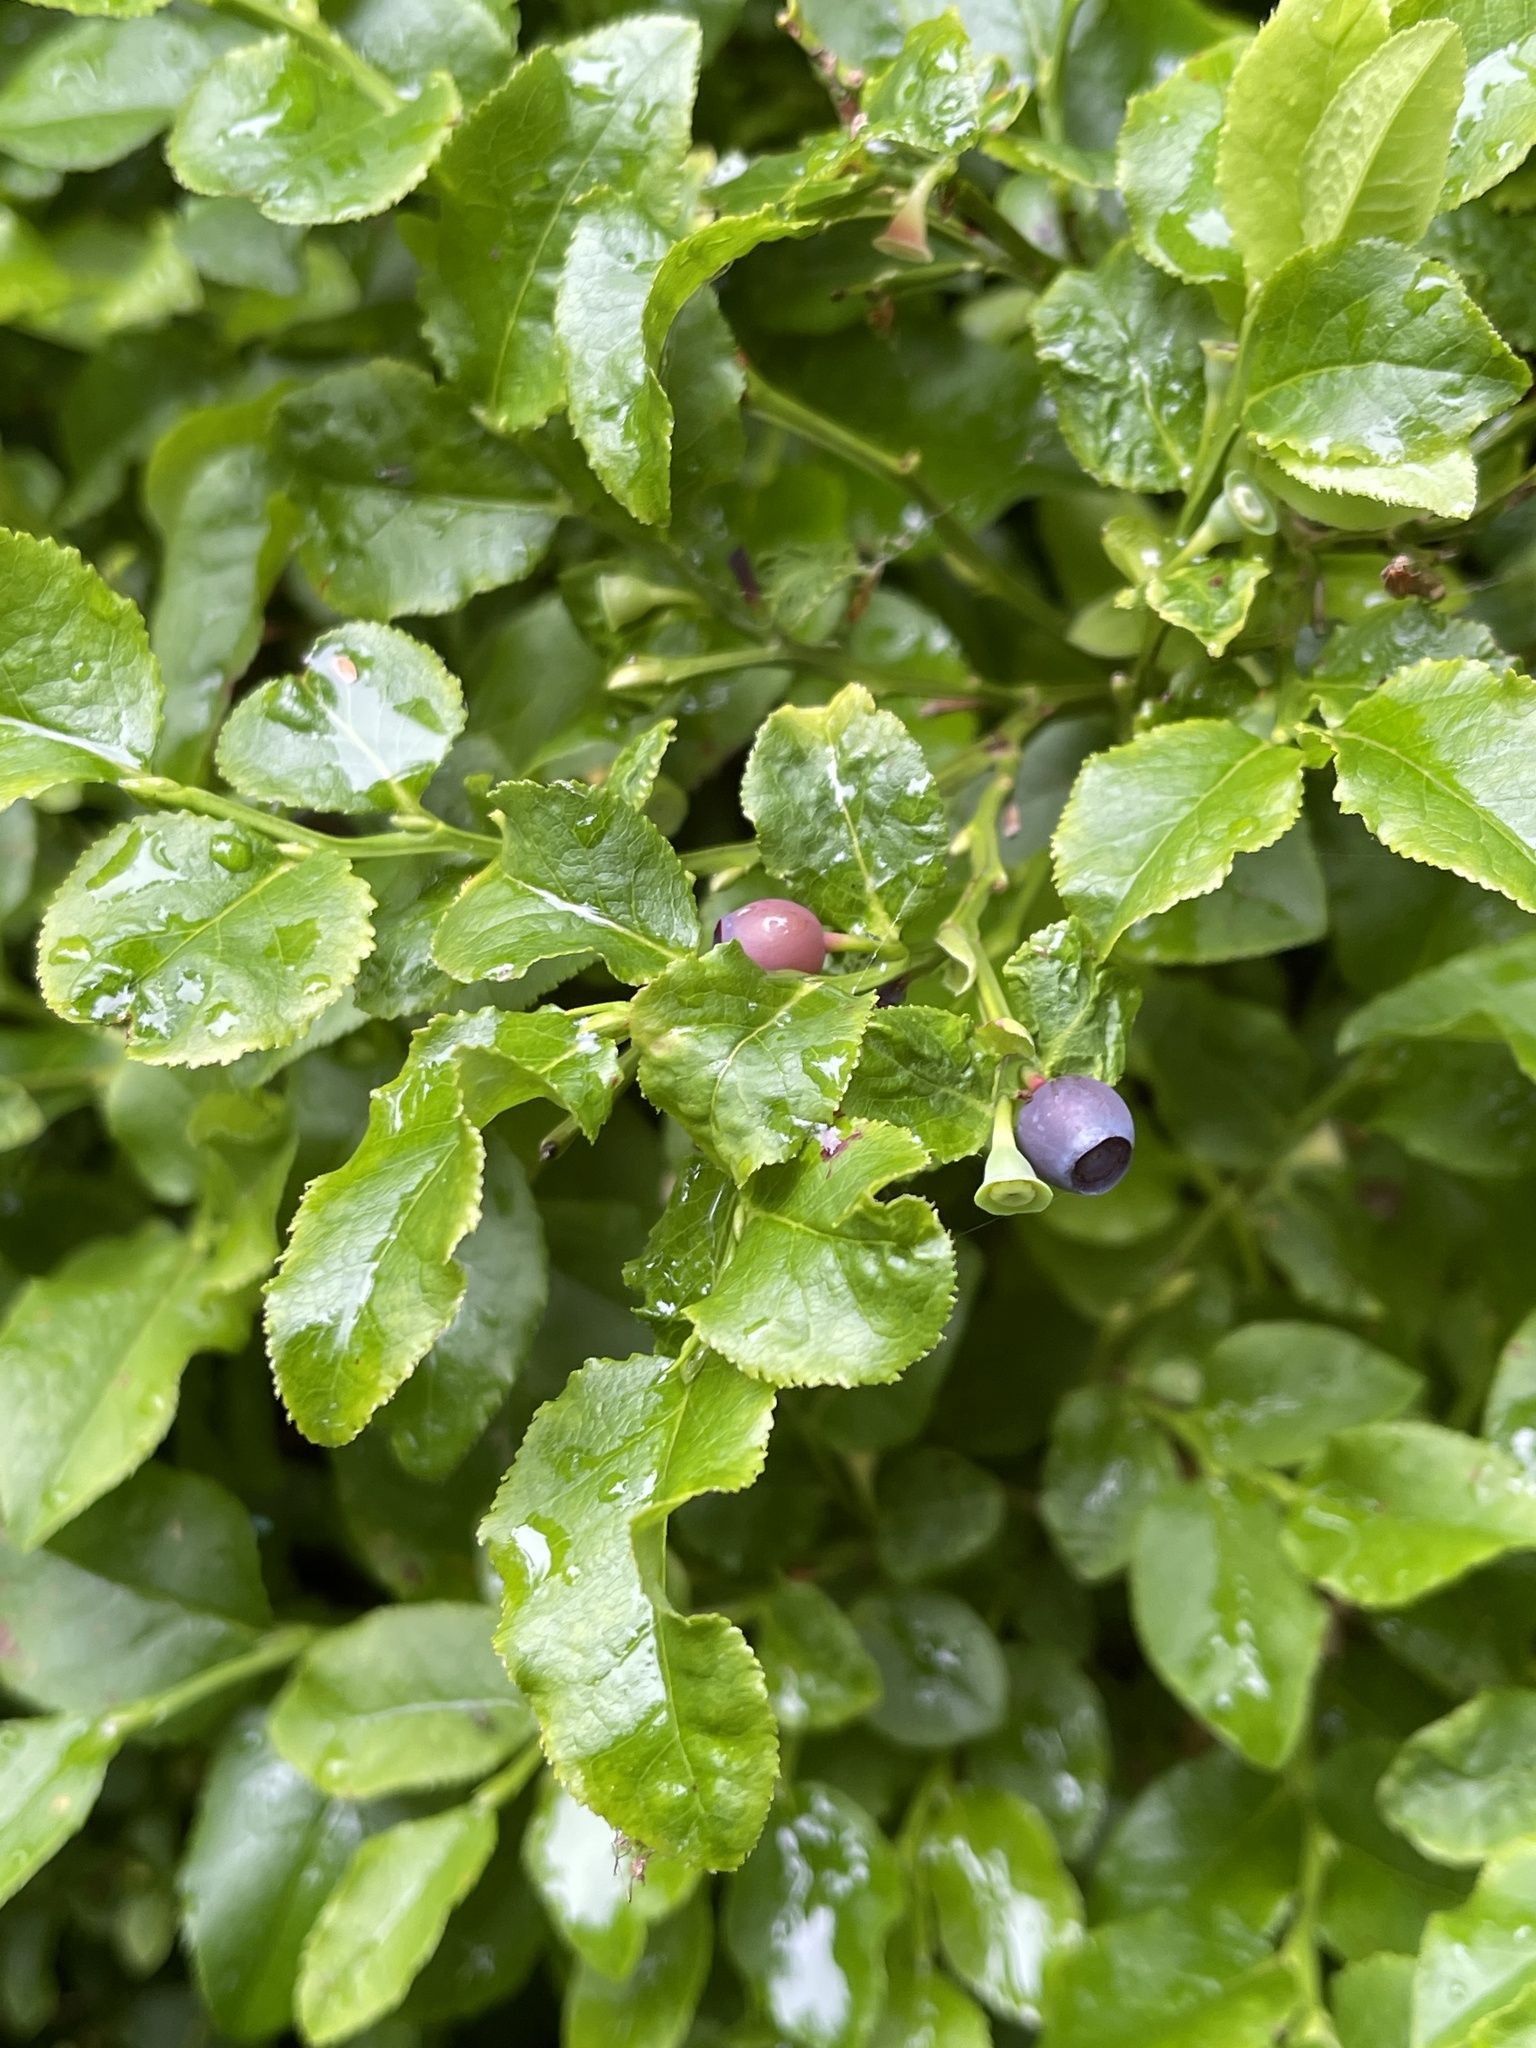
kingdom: Plantae
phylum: Tracheophyta
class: Magnoliopsida
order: Ericales
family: Ericaceae
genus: Vaccinium
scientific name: Vaccinium myrtillus
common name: Bilberry
